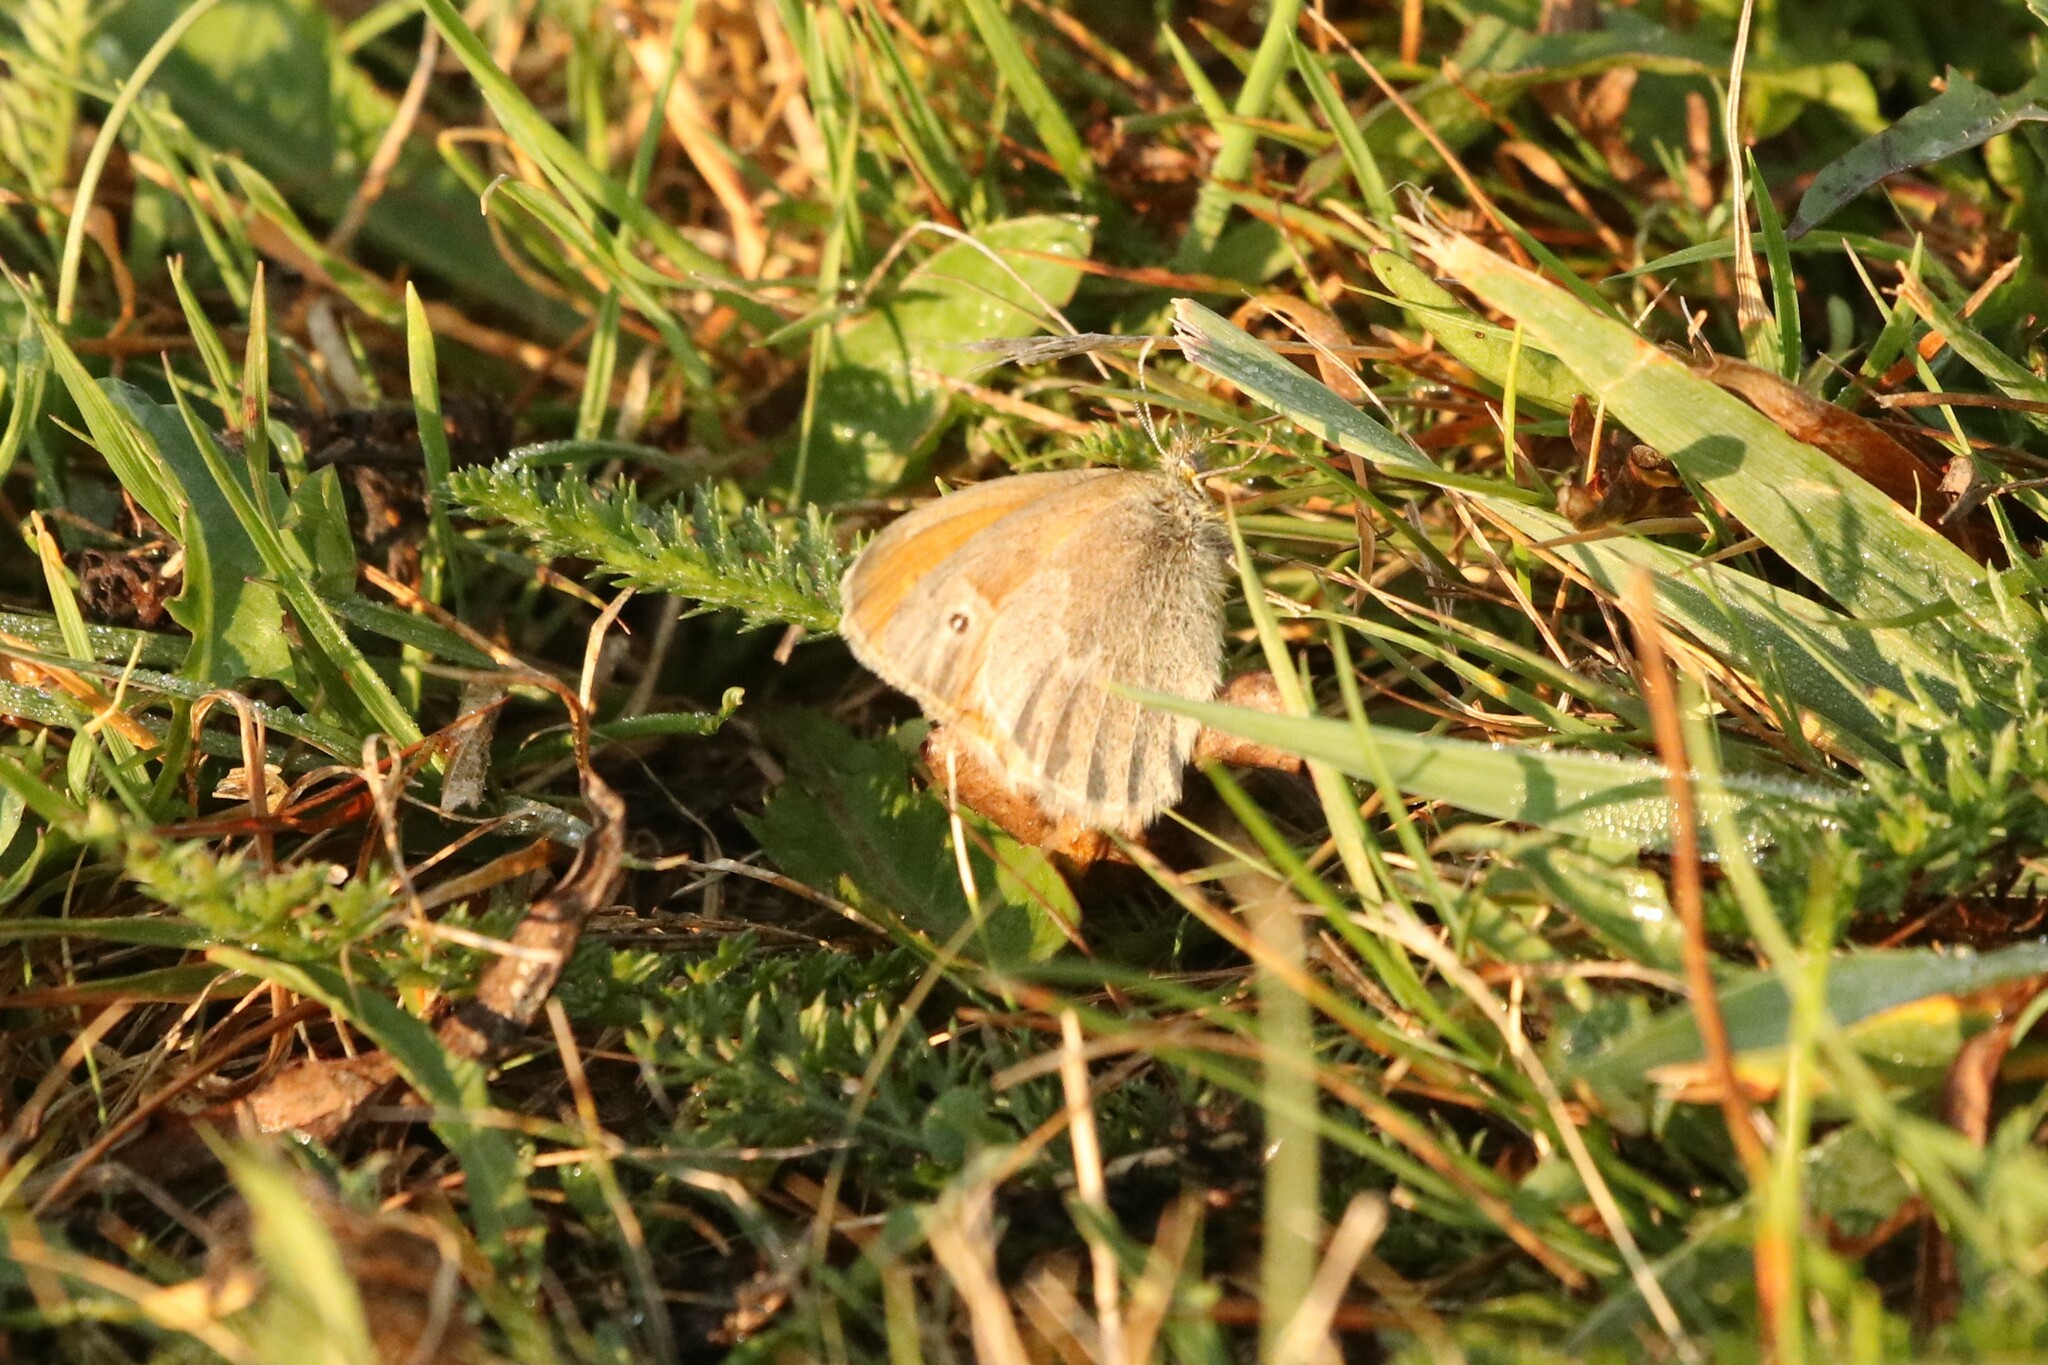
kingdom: Animalia
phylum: Arthropoda
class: Insecta
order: Lepidoptera
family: Nymphalidae
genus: Coenonympha
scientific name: Coenonympha california
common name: Common ringlet
